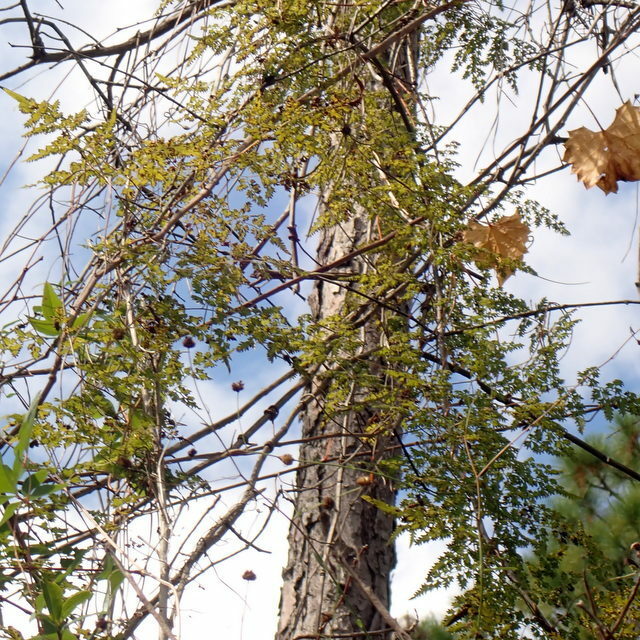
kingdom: Plantae
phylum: Tracheophyta
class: Polypodiopsida
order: Schizaeales
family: Lygodiaceae
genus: Lygodium
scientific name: Lygodium japonicum
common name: Japanese climbing fern
